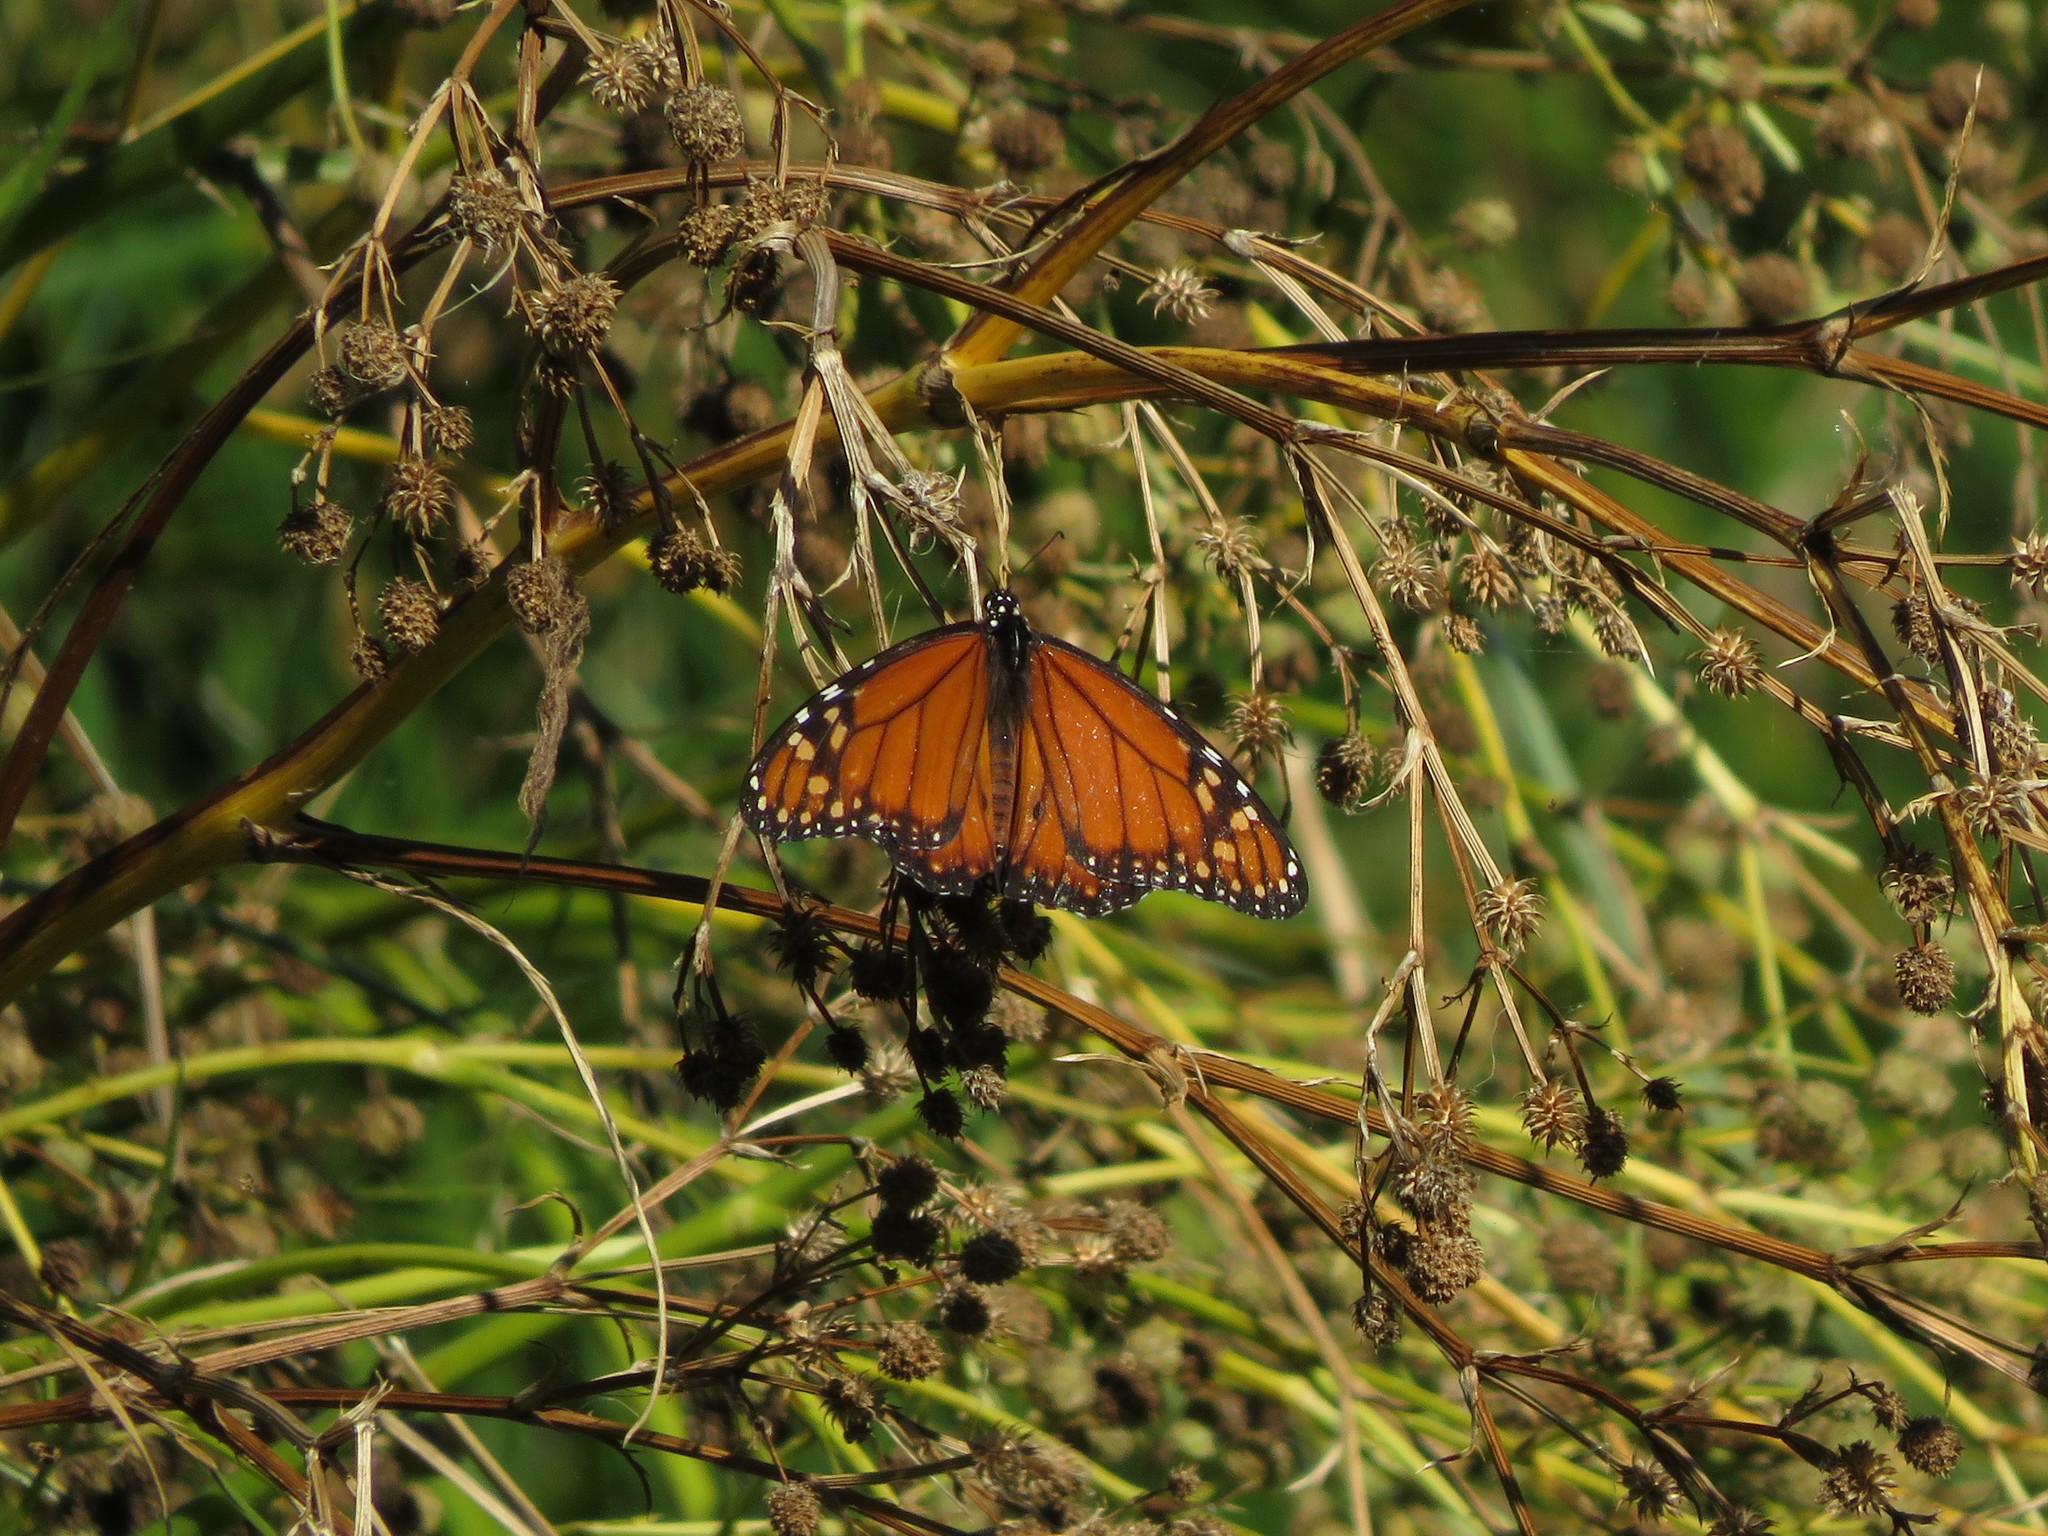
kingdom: Animalia
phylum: Arthropoda
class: Insecta
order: Lepidoptera
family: Nymphalidae
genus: Danaus
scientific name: Danaus erippus
